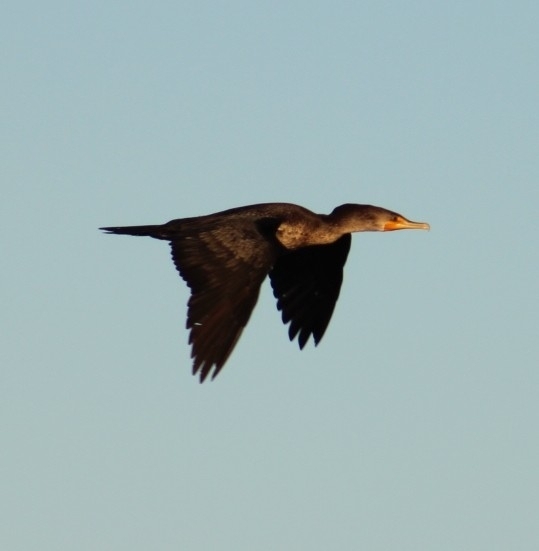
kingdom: Animalia
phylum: Chordata
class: Aves
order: Suliformes
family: Phalacrocoracidae
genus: Phalacrocorax
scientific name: Phalacrocorax auritus
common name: Double-crested cormorant
